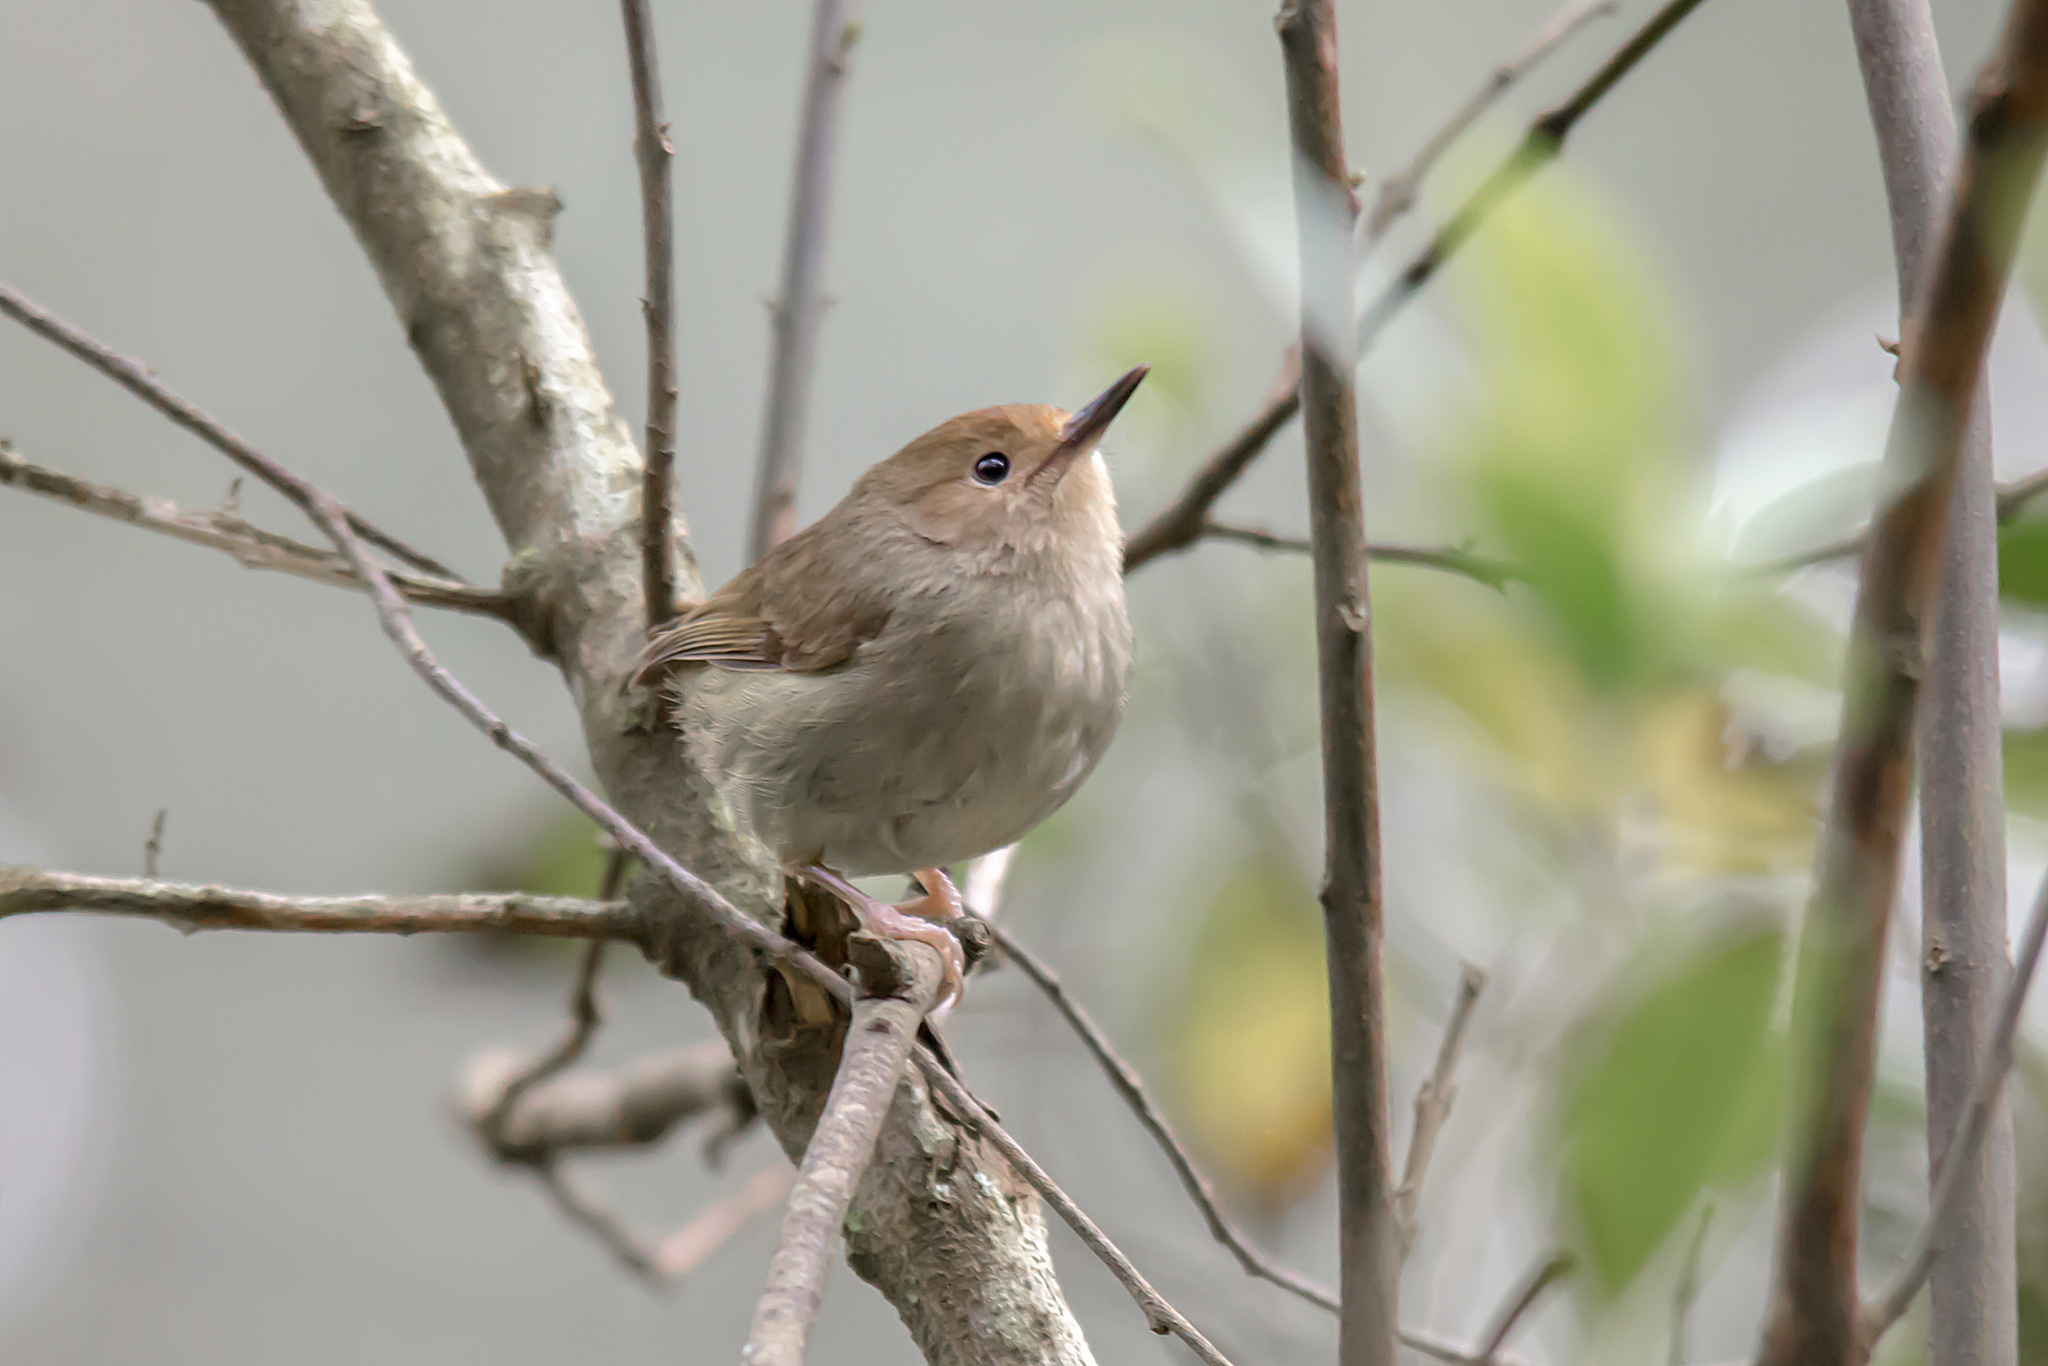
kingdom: Animalia
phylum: Chordata
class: Aves
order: Passeriformes
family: Acanthizidae
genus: Sericornis
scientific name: Sericornis magnirostra
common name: Large-billed scrubwren
